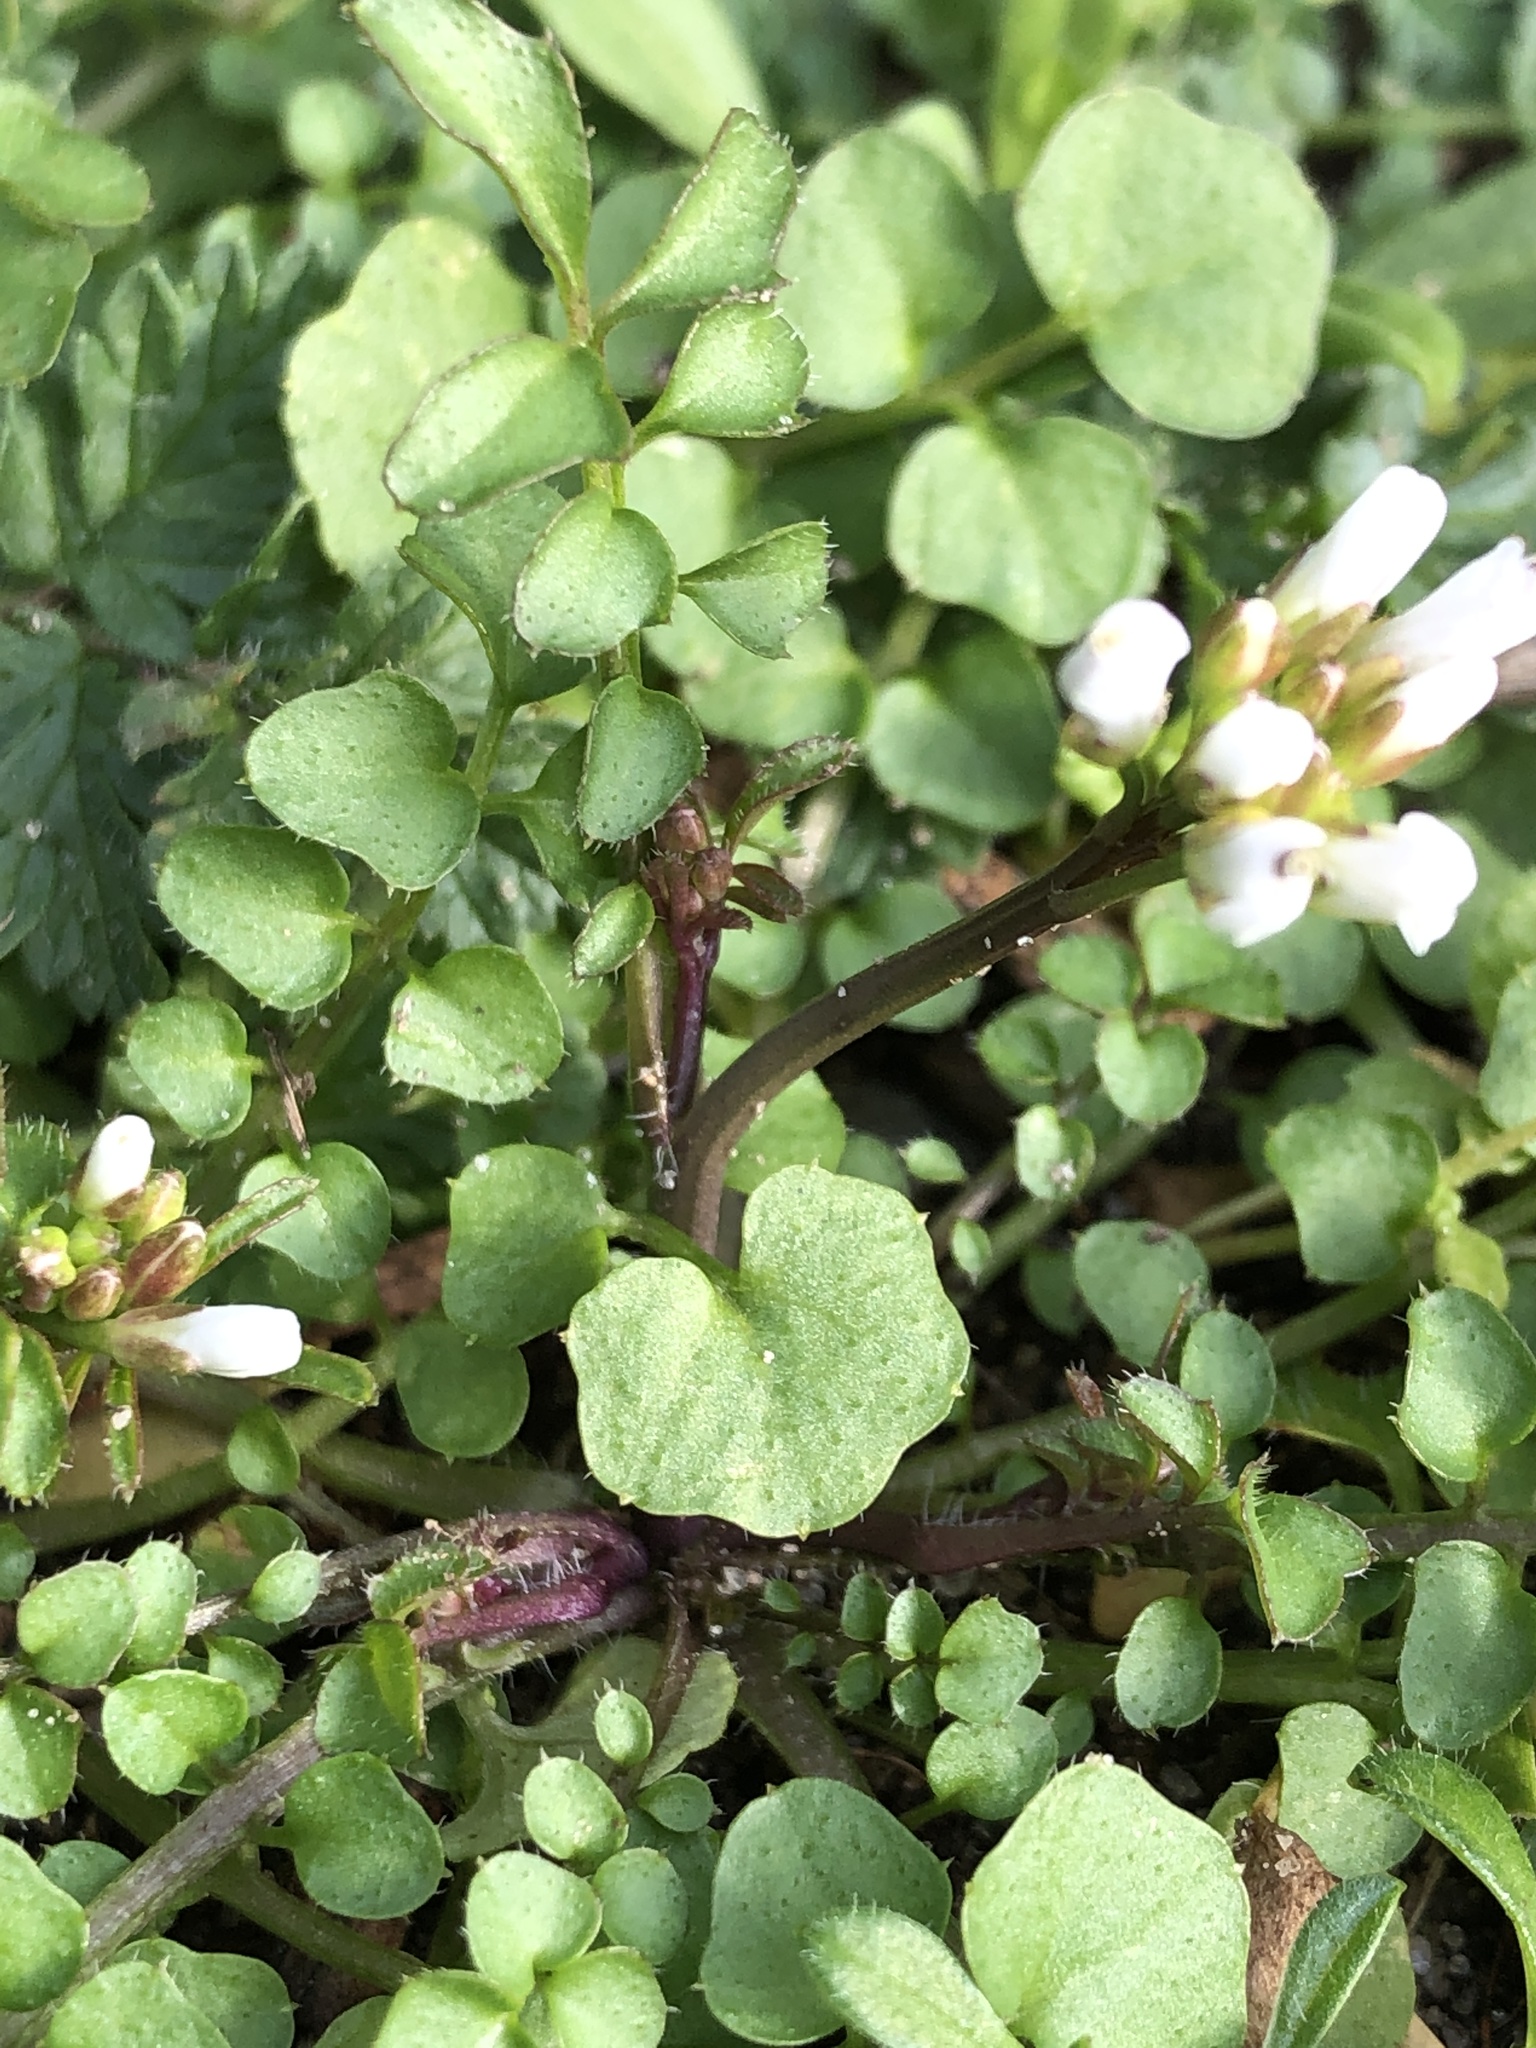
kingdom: Plantae
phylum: Tracheophyta
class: Magnoliopsida
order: Brassicales
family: Brassicaceae
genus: Cardamine
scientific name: Cardamine hirsuta
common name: Hairy bittercress
